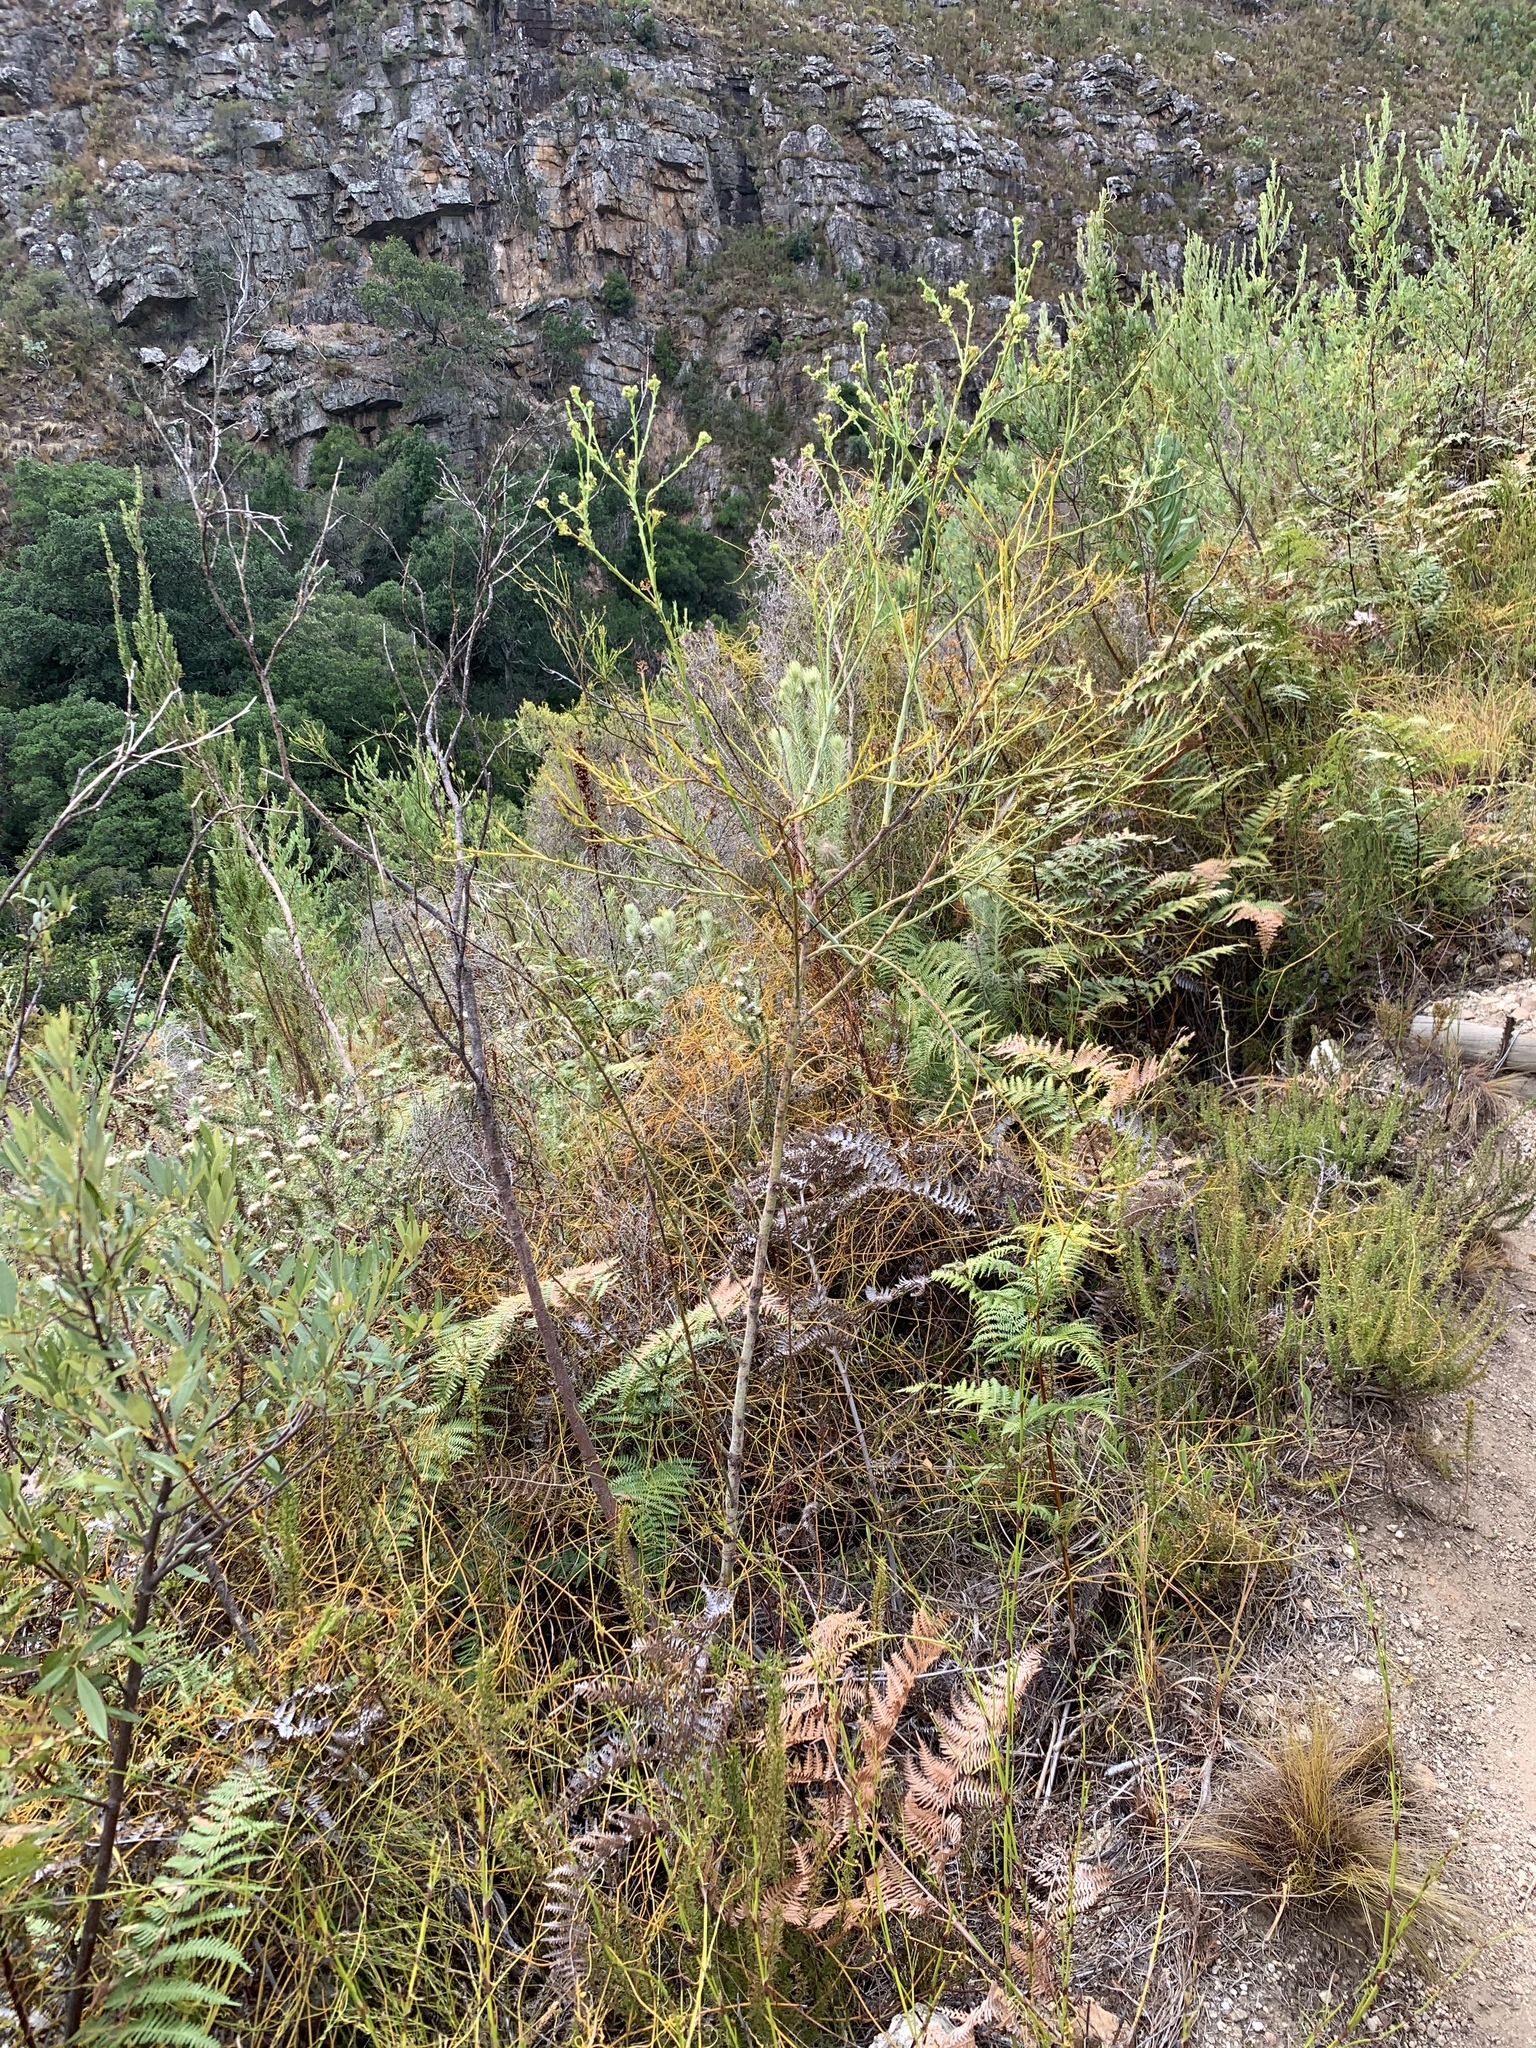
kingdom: Plantae
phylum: Tracheophyta
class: Magnoliopsida
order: Santalales
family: Thesiaceae
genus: Thesium
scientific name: Thesium strictum
